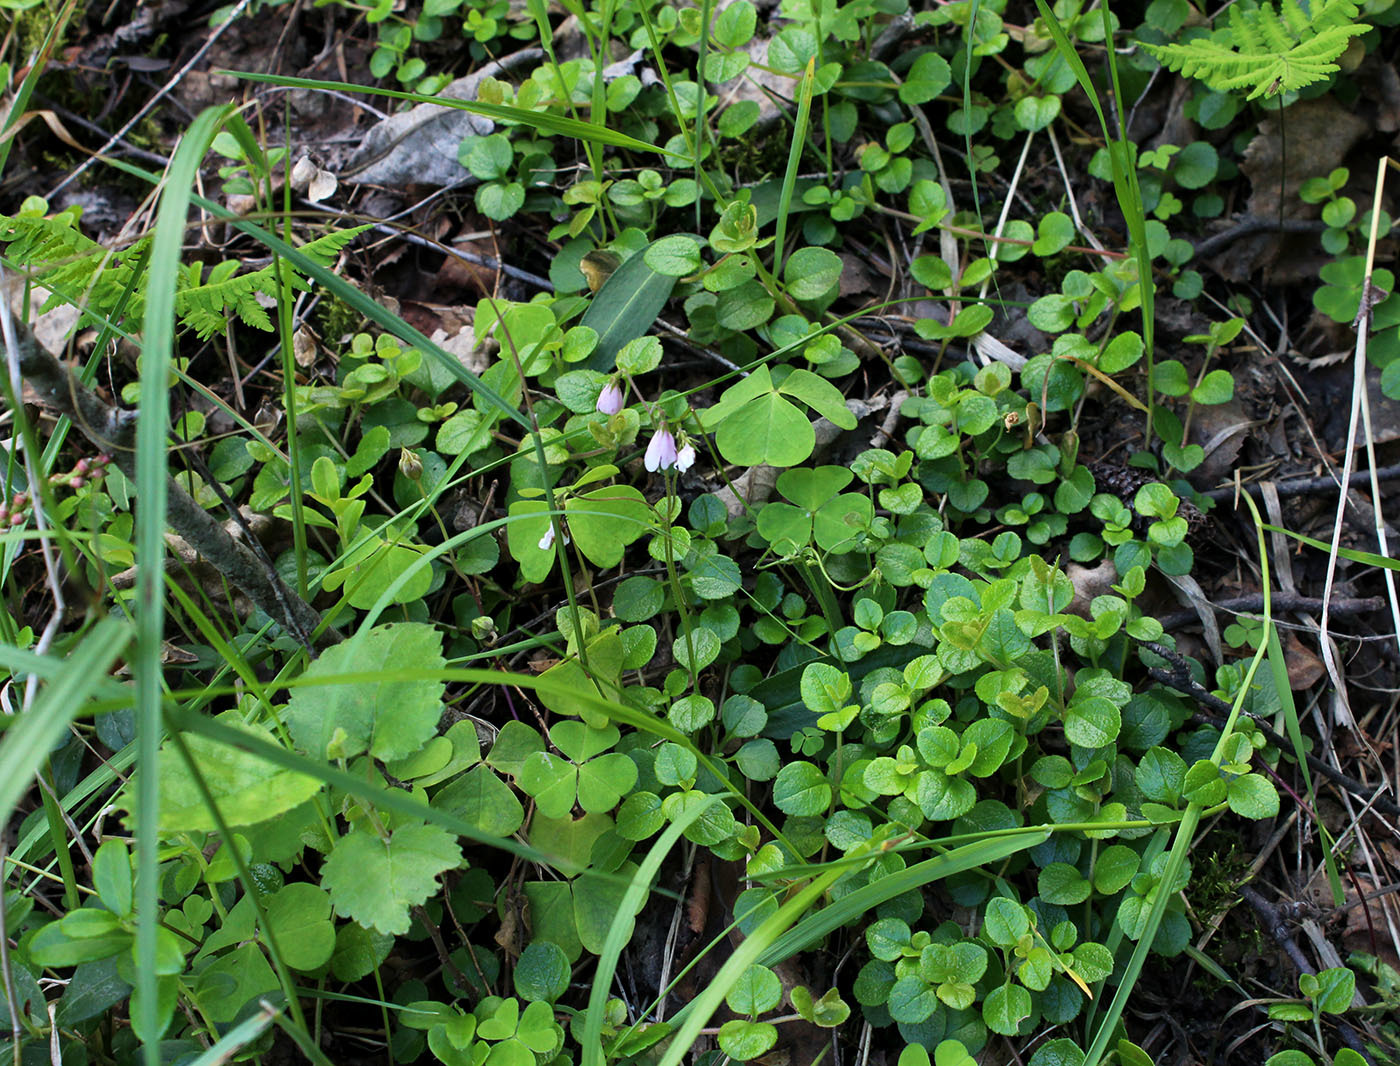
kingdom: Plantae
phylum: Tracheophyta
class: Magnoliopsida
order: Dipsacales
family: Caprifoliaceae
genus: Linnaea
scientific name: Linnaea borealis
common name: Twinflower
